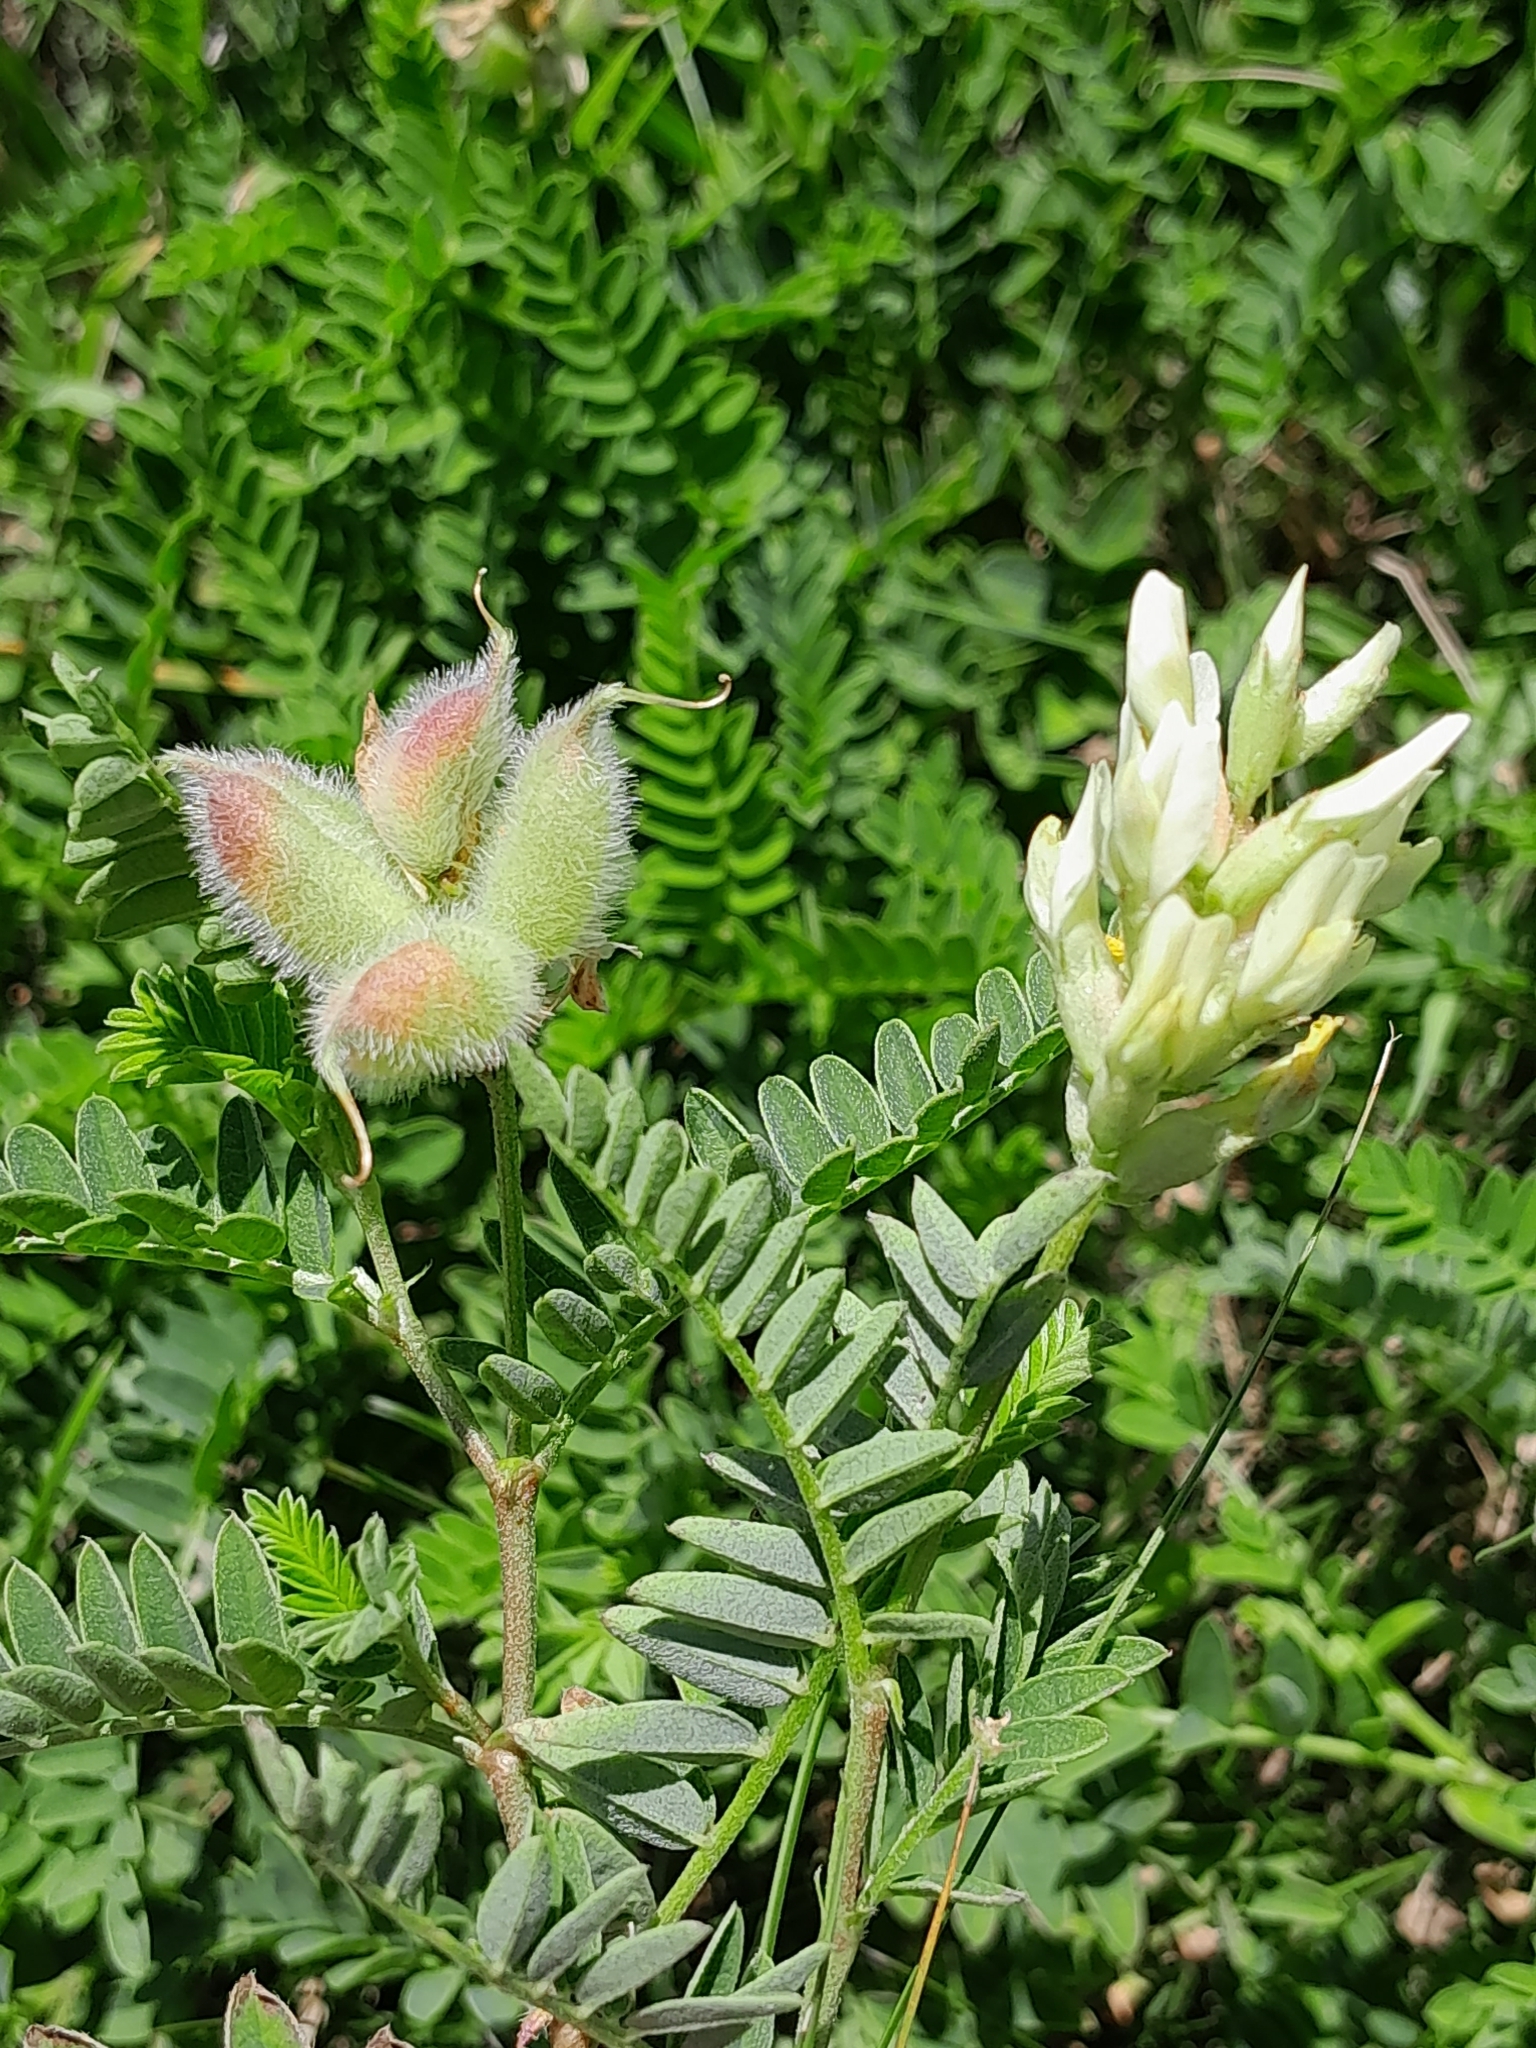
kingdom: Plantae
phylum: Tracheophyta
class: Magnoliopsida
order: Fabales
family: Fabaceae
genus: Astragalus
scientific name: Astragalus cicer
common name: Chick-pea milk-vetch
